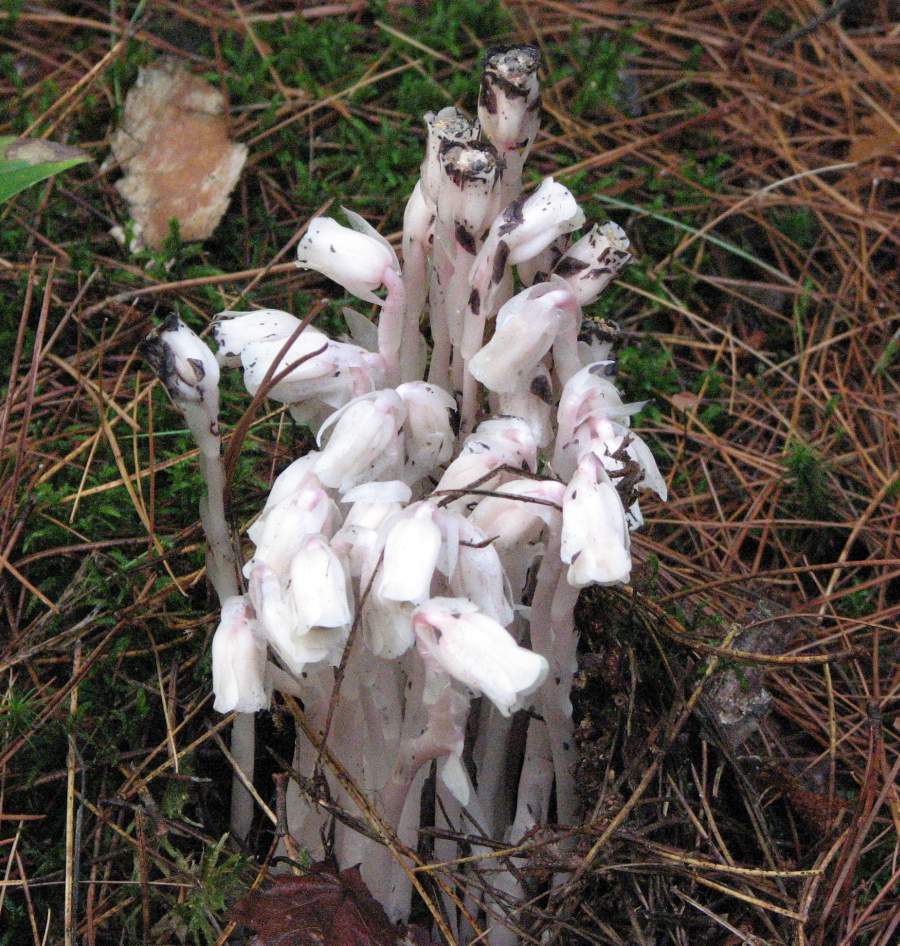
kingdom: Plantae
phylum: Tracheophyta
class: Magnoliopsida
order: Ericales
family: Ericaceae
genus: Monotropa
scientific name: Monotropa uniflora
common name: Convulsion root
